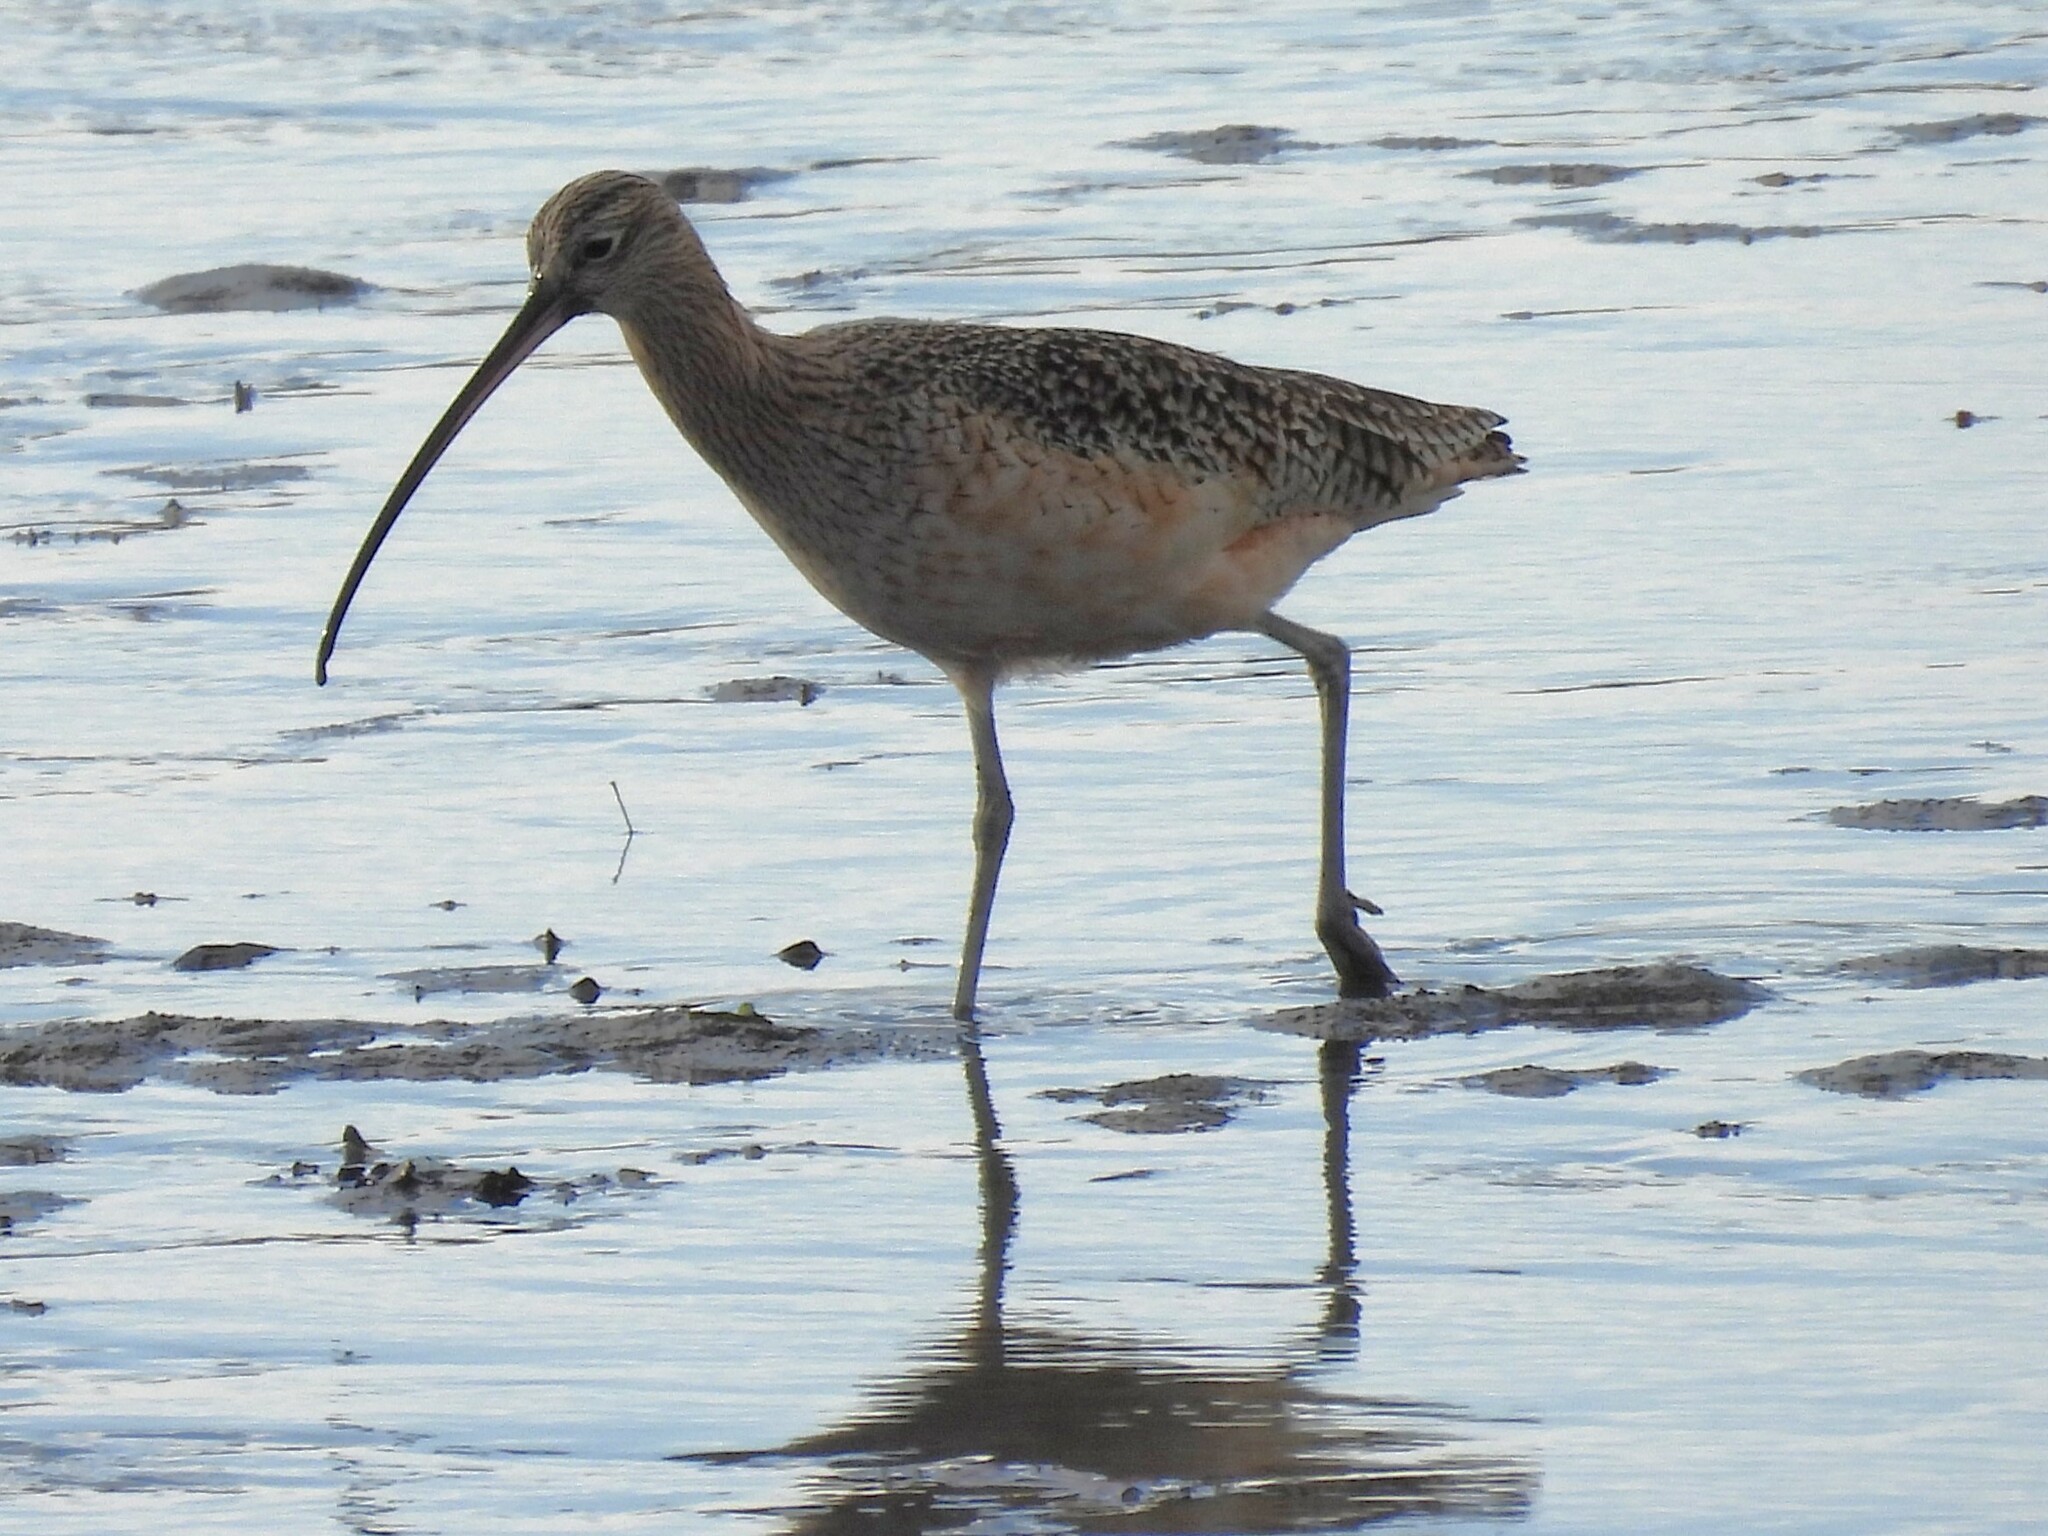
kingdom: Animalia
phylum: Chordata
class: Aves
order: Charadriiformes
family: Scolopacidae
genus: Numenius
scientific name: Numenius americanus
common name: Long-billed curlew
